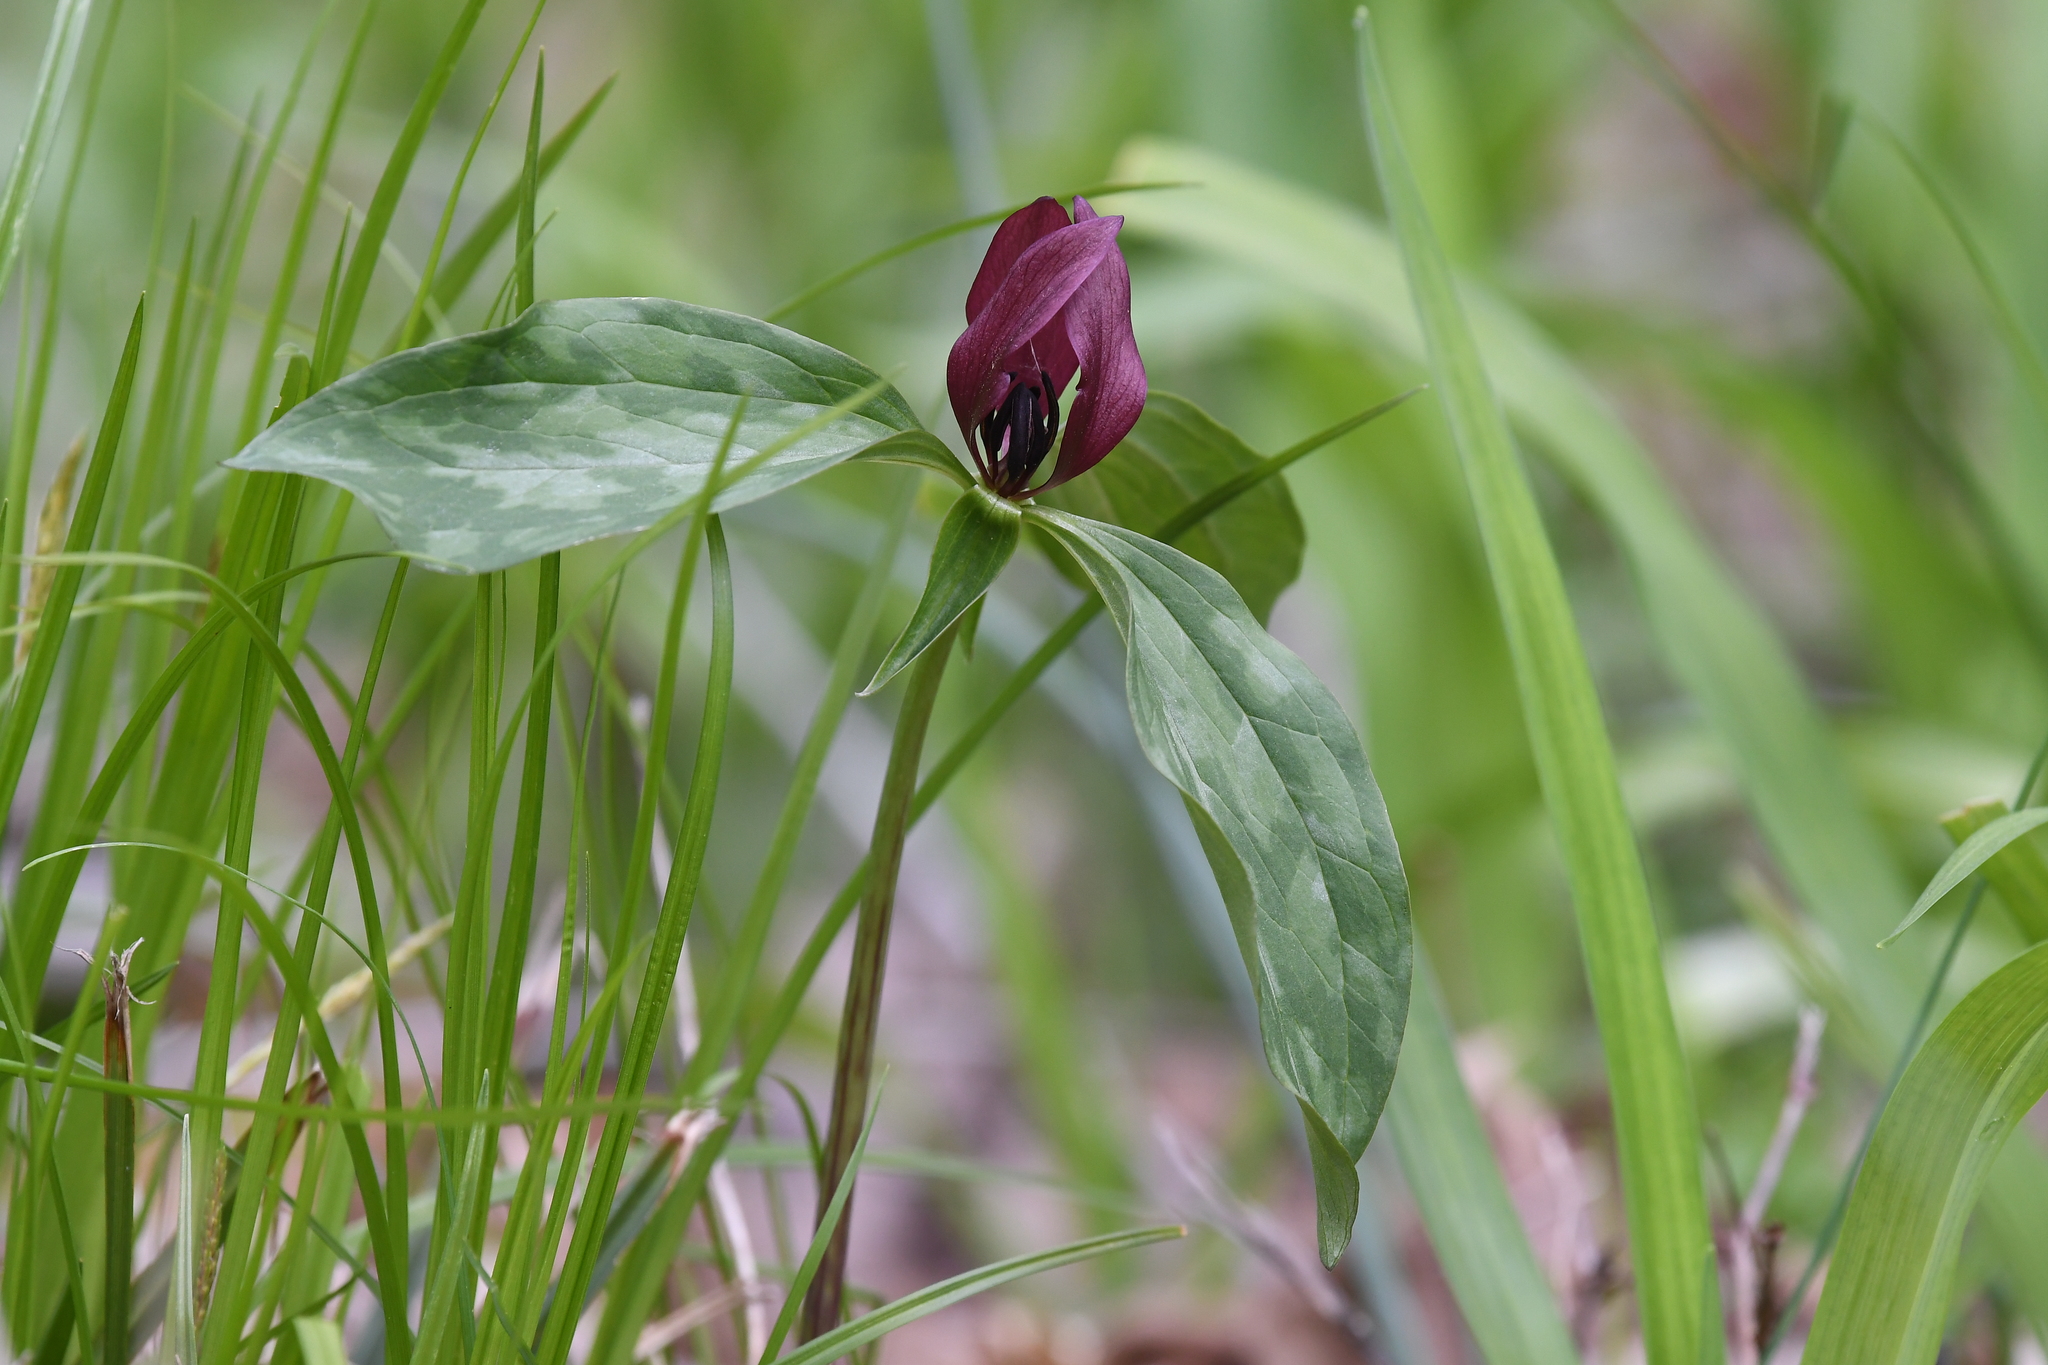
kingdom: Plantae
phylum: Tracheophyta
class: Liliopsida
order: Liliales
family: Melanthiaceae
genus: Trillium
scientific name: Trillium recurvatum
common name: Bloody butcher
